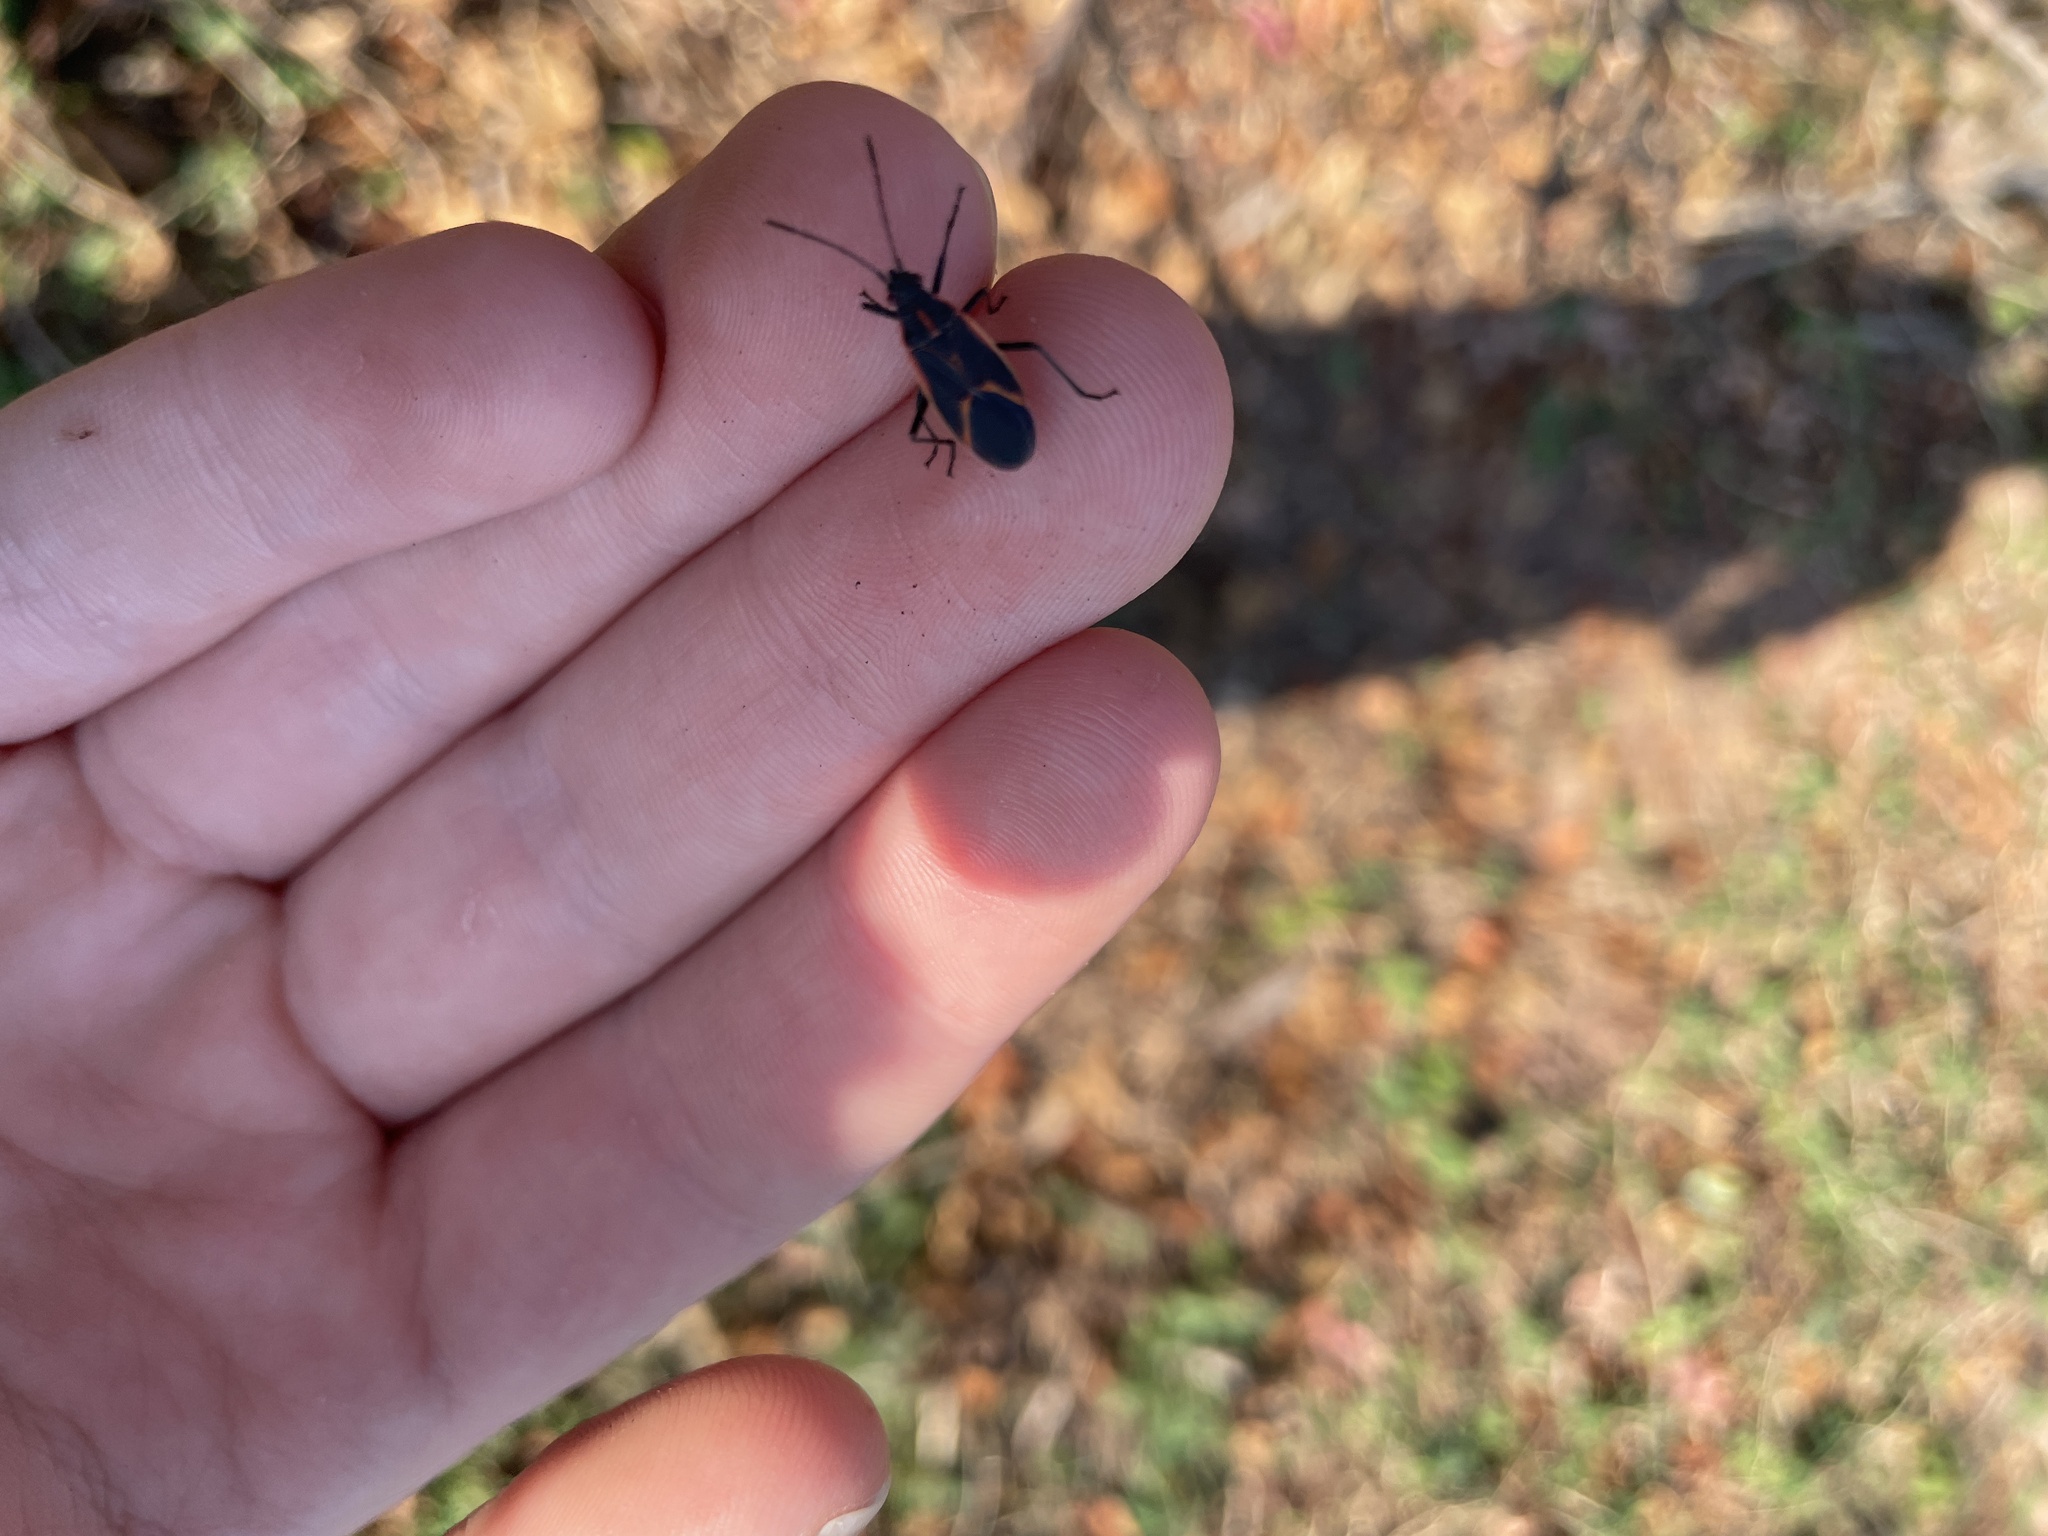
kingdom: Animalia
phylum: Arthropoda
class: Insecta
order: Hemiptera
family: Rhopalidae
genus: Boisea
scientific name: Boisea trivittata
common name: Boxelder bug
